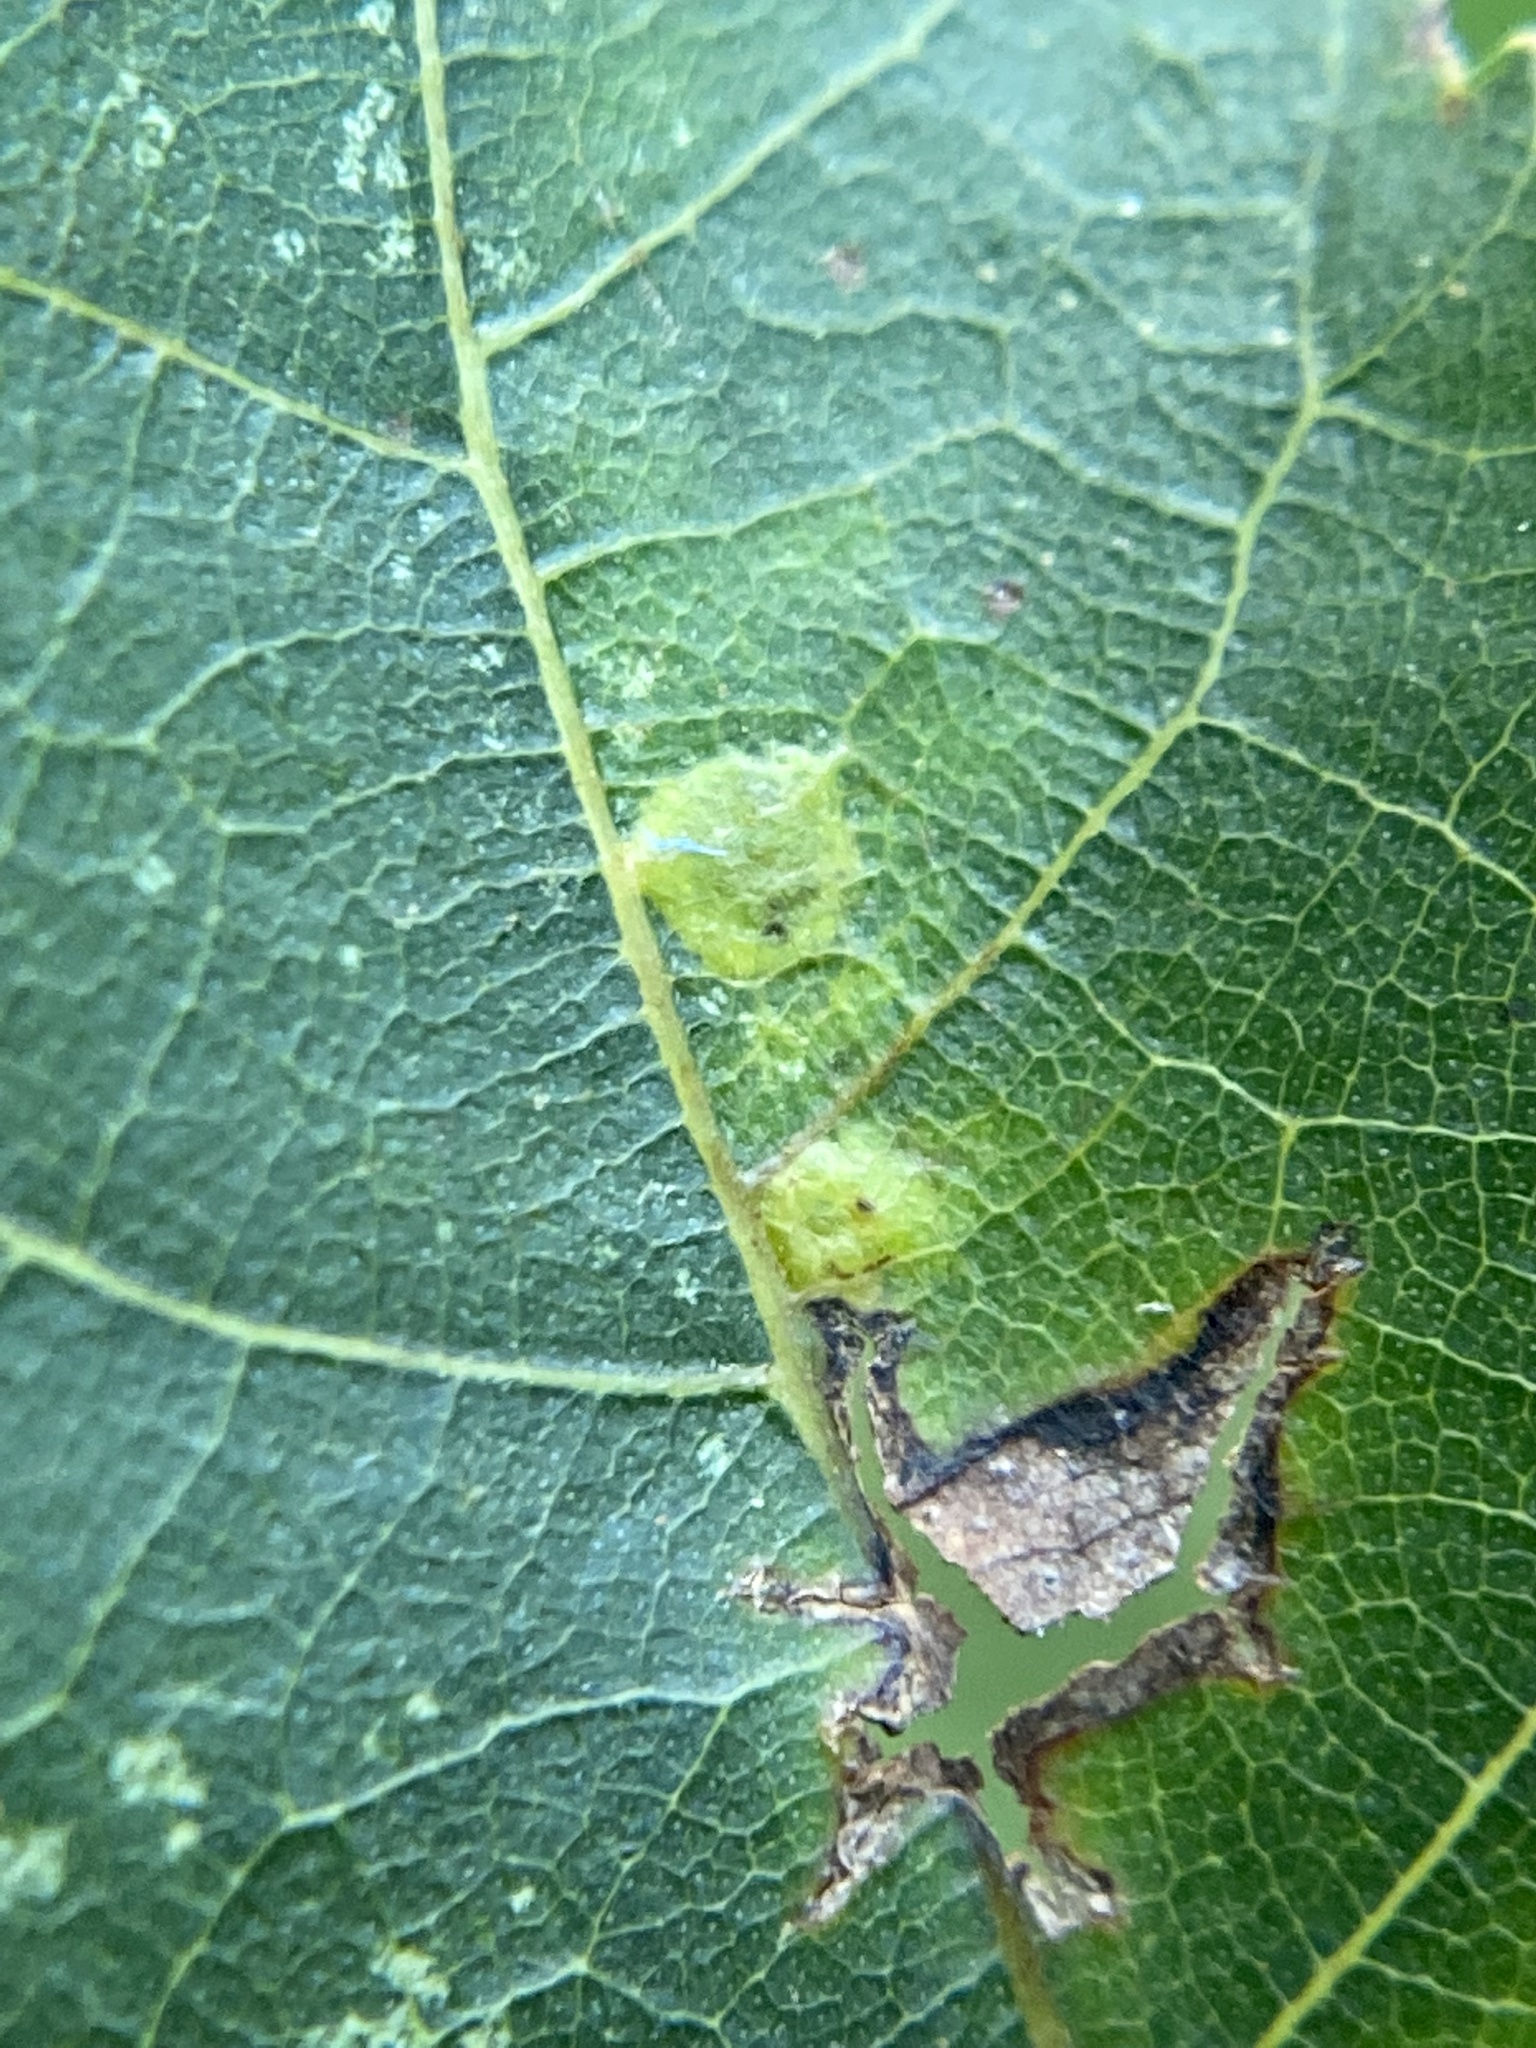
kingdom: Animalia
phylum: Arthropoda
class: Insecta
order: Diptera
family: Cecidomyiidae
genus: Caryomyia
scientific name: Caryomyia caryae
